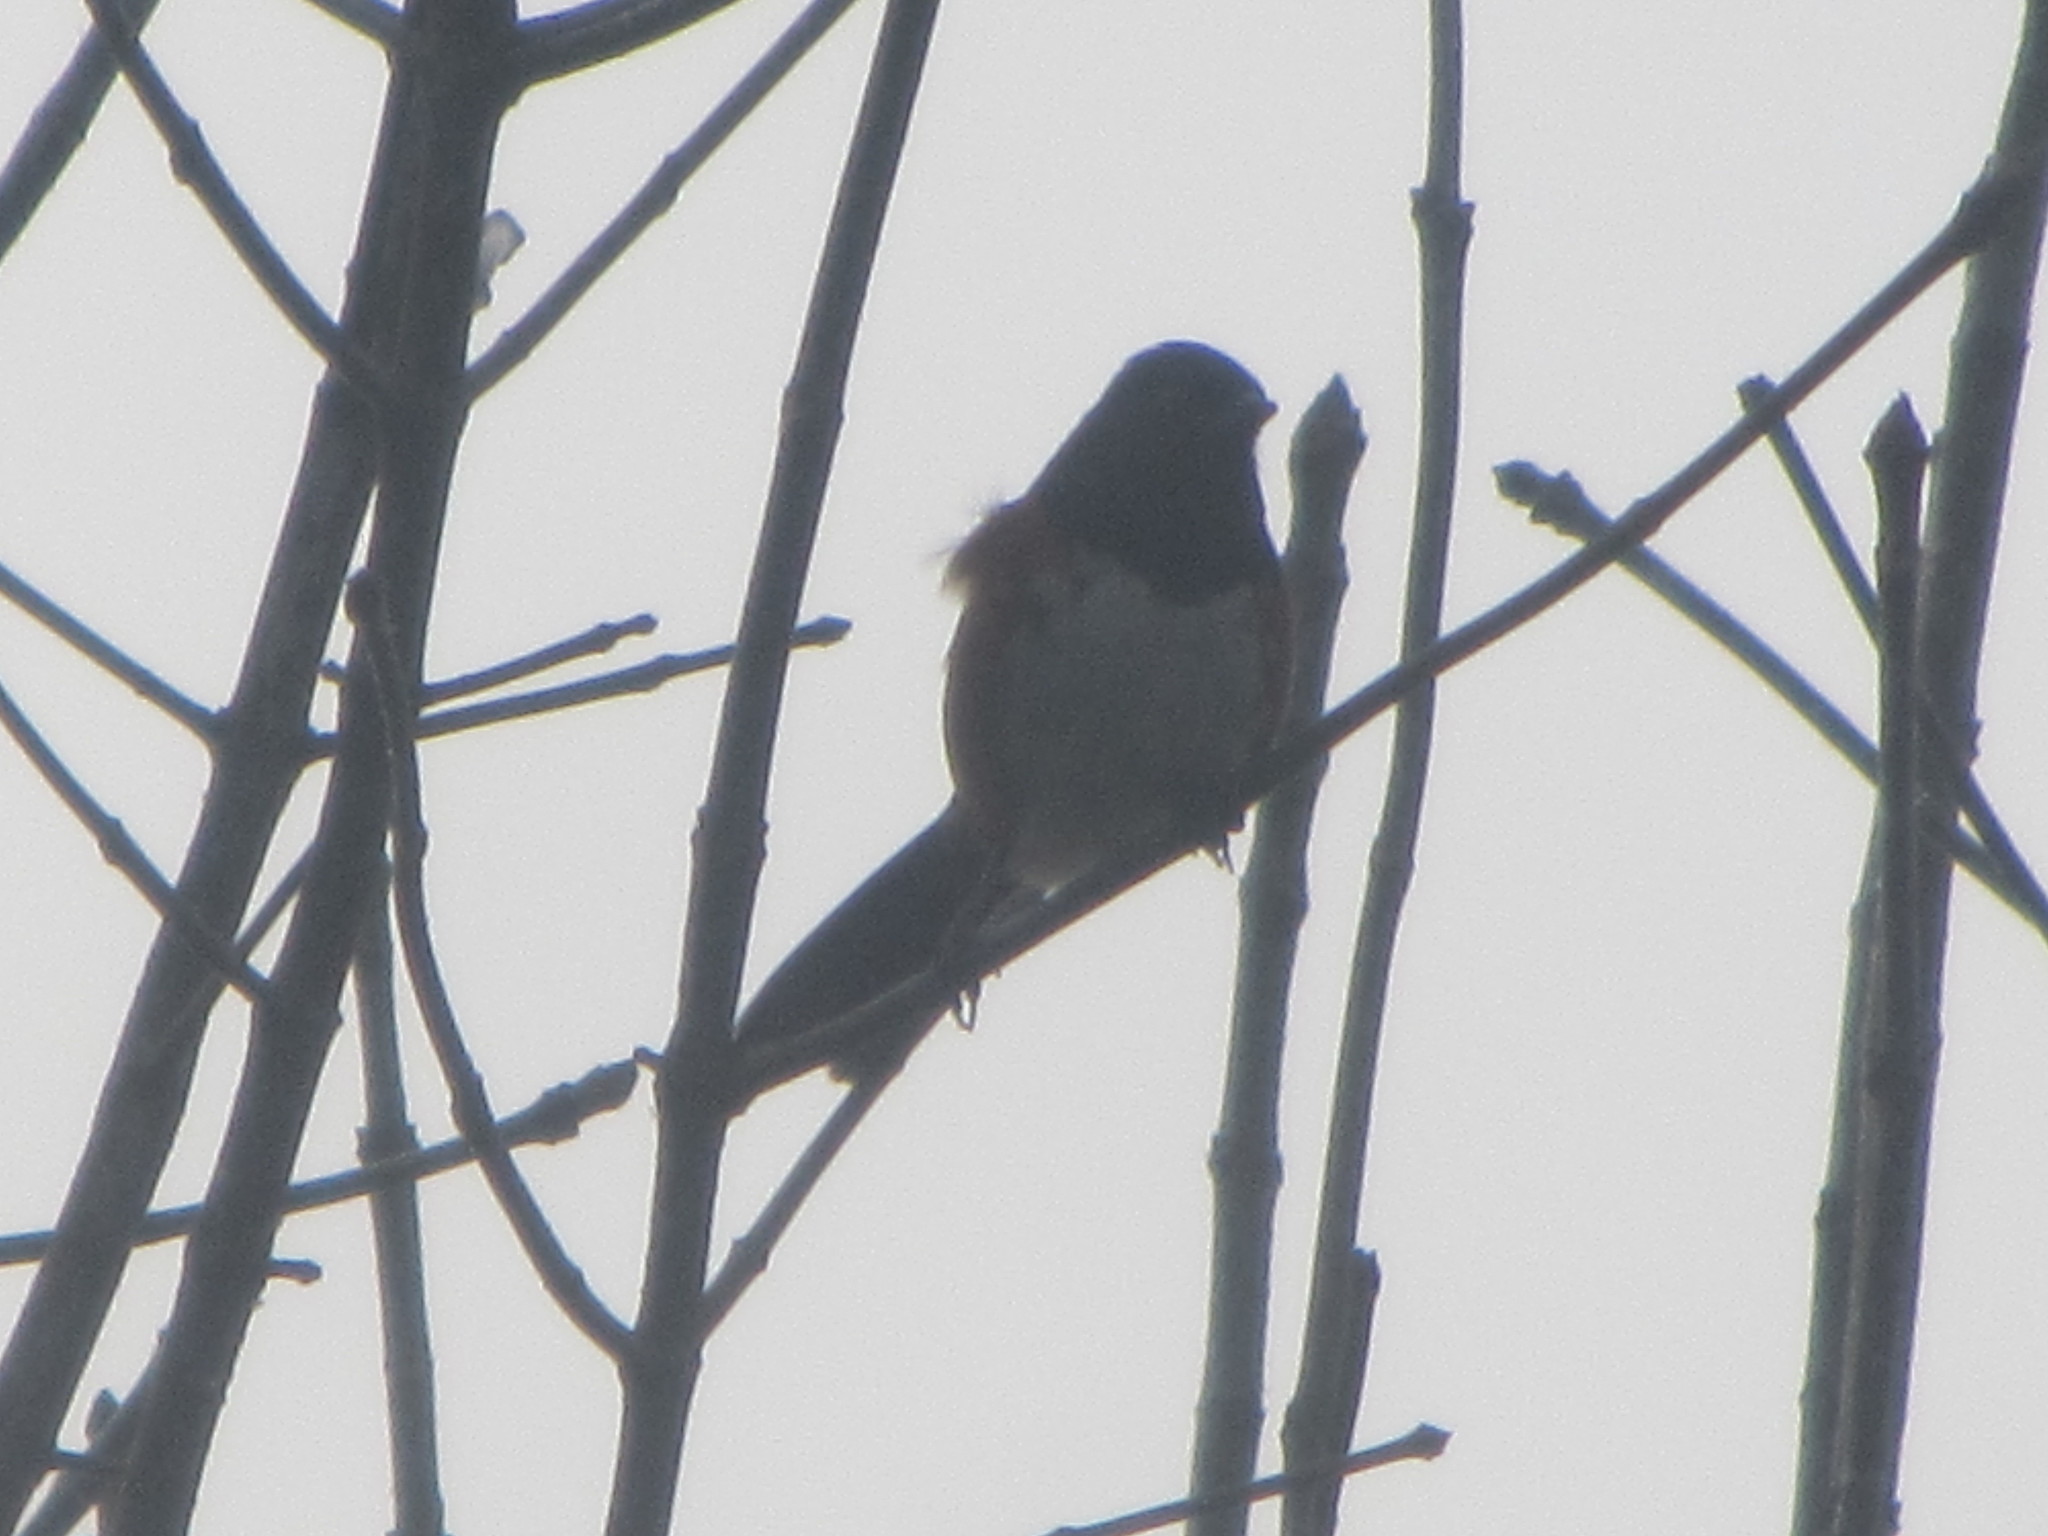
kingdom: Animalia
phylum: Chordata
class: Aves
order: Passeriformes
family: Passerellidae
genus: Pipilo
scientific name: Pipilo maculatus
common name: Spotted towhee
